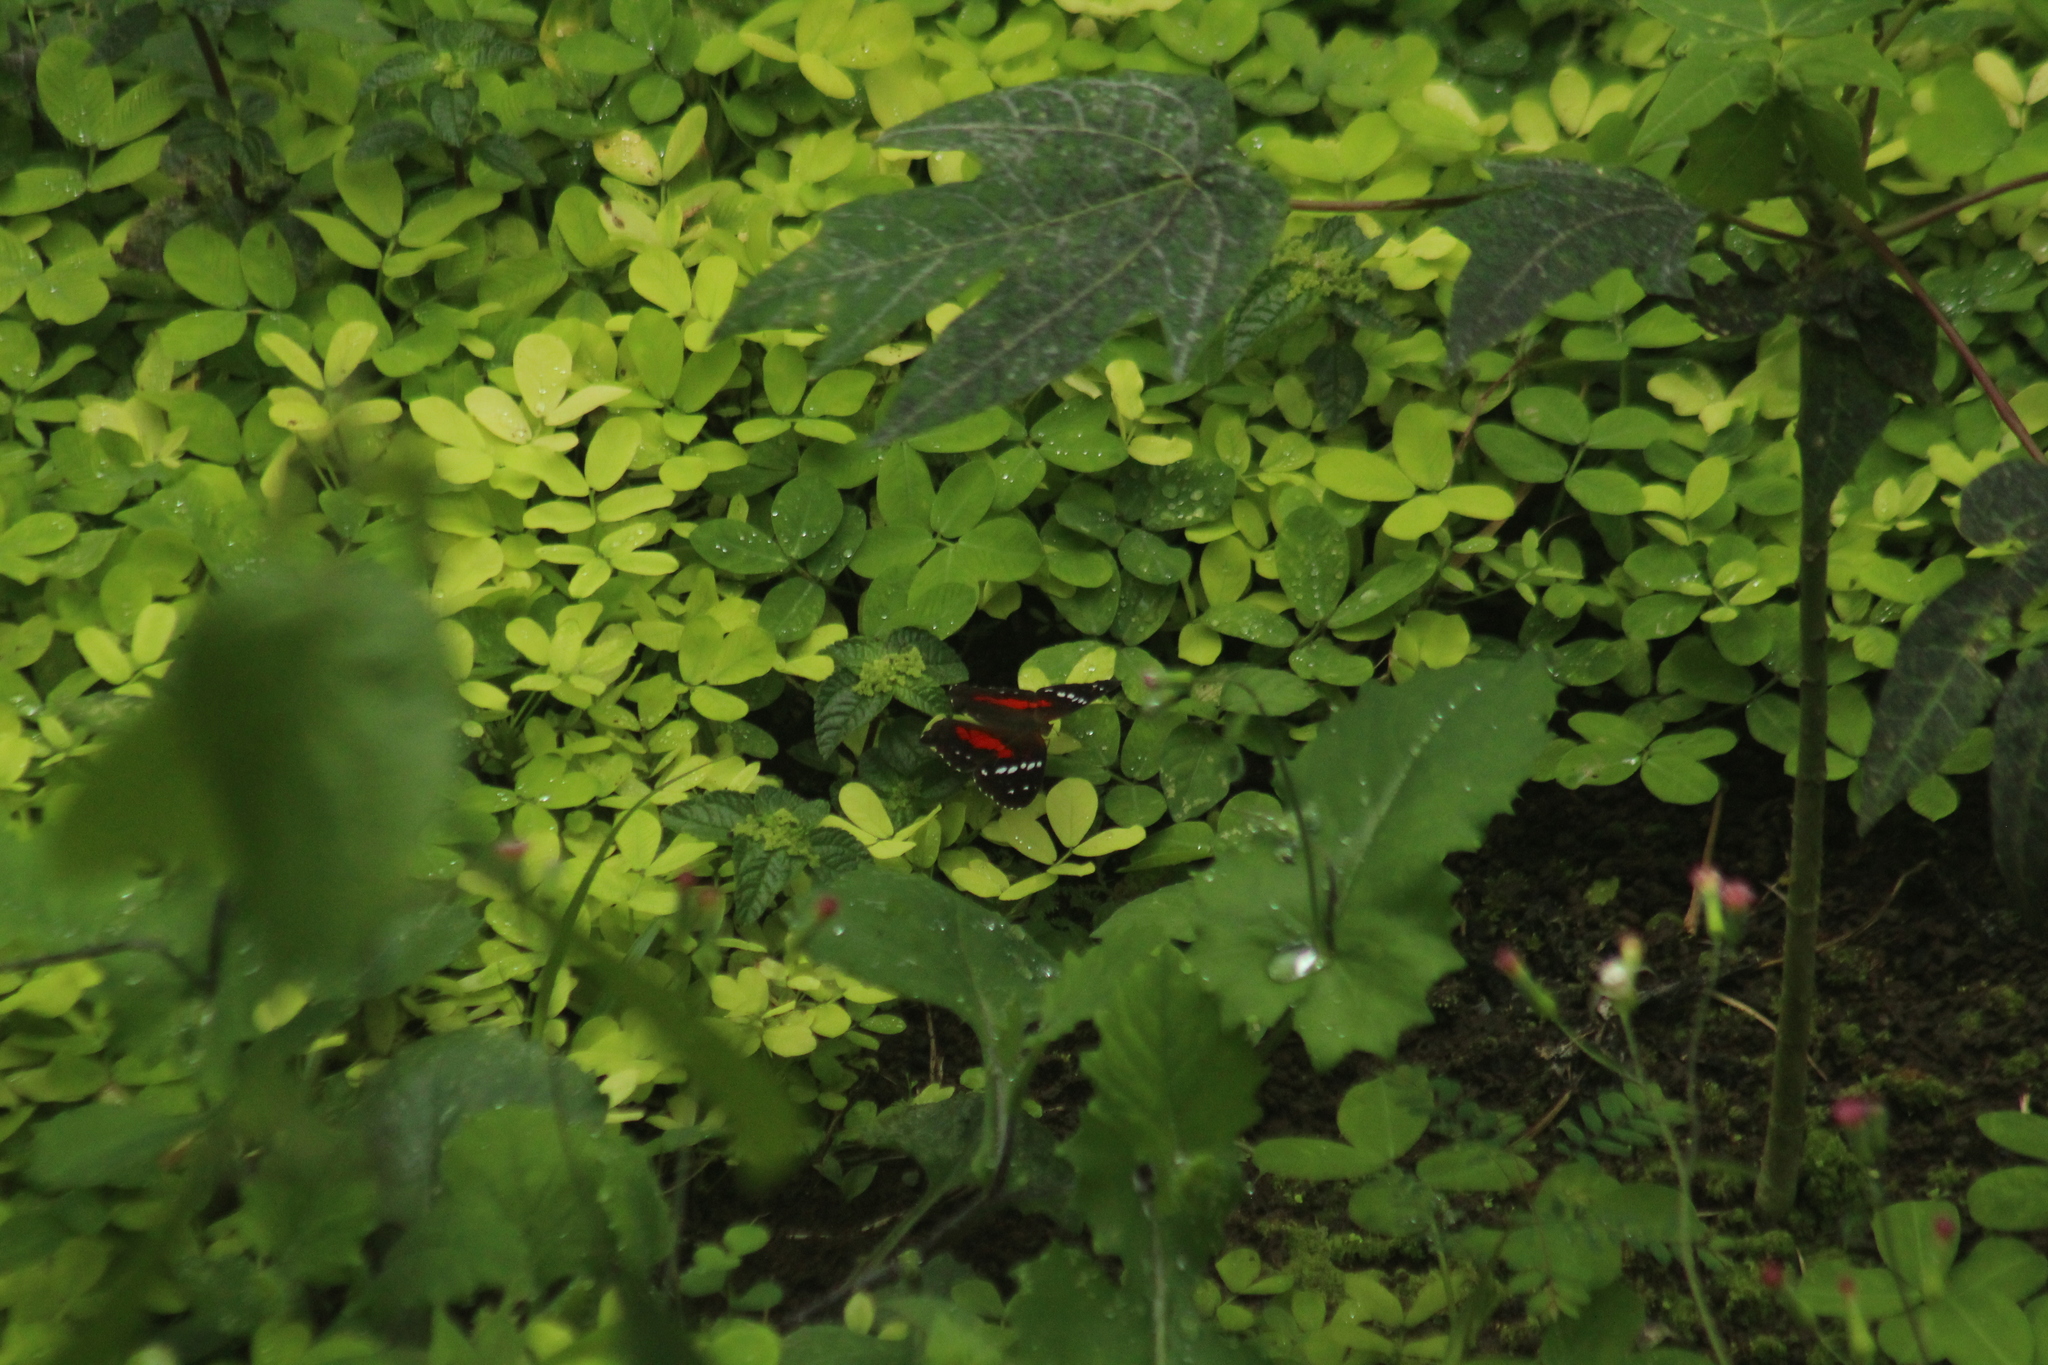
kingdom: Animalia
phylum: Arthropoda
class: Insecta
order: Lepidoptera
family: Nymphalidae
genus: Anartia
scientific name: Anartia amathea
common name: Red peacock
